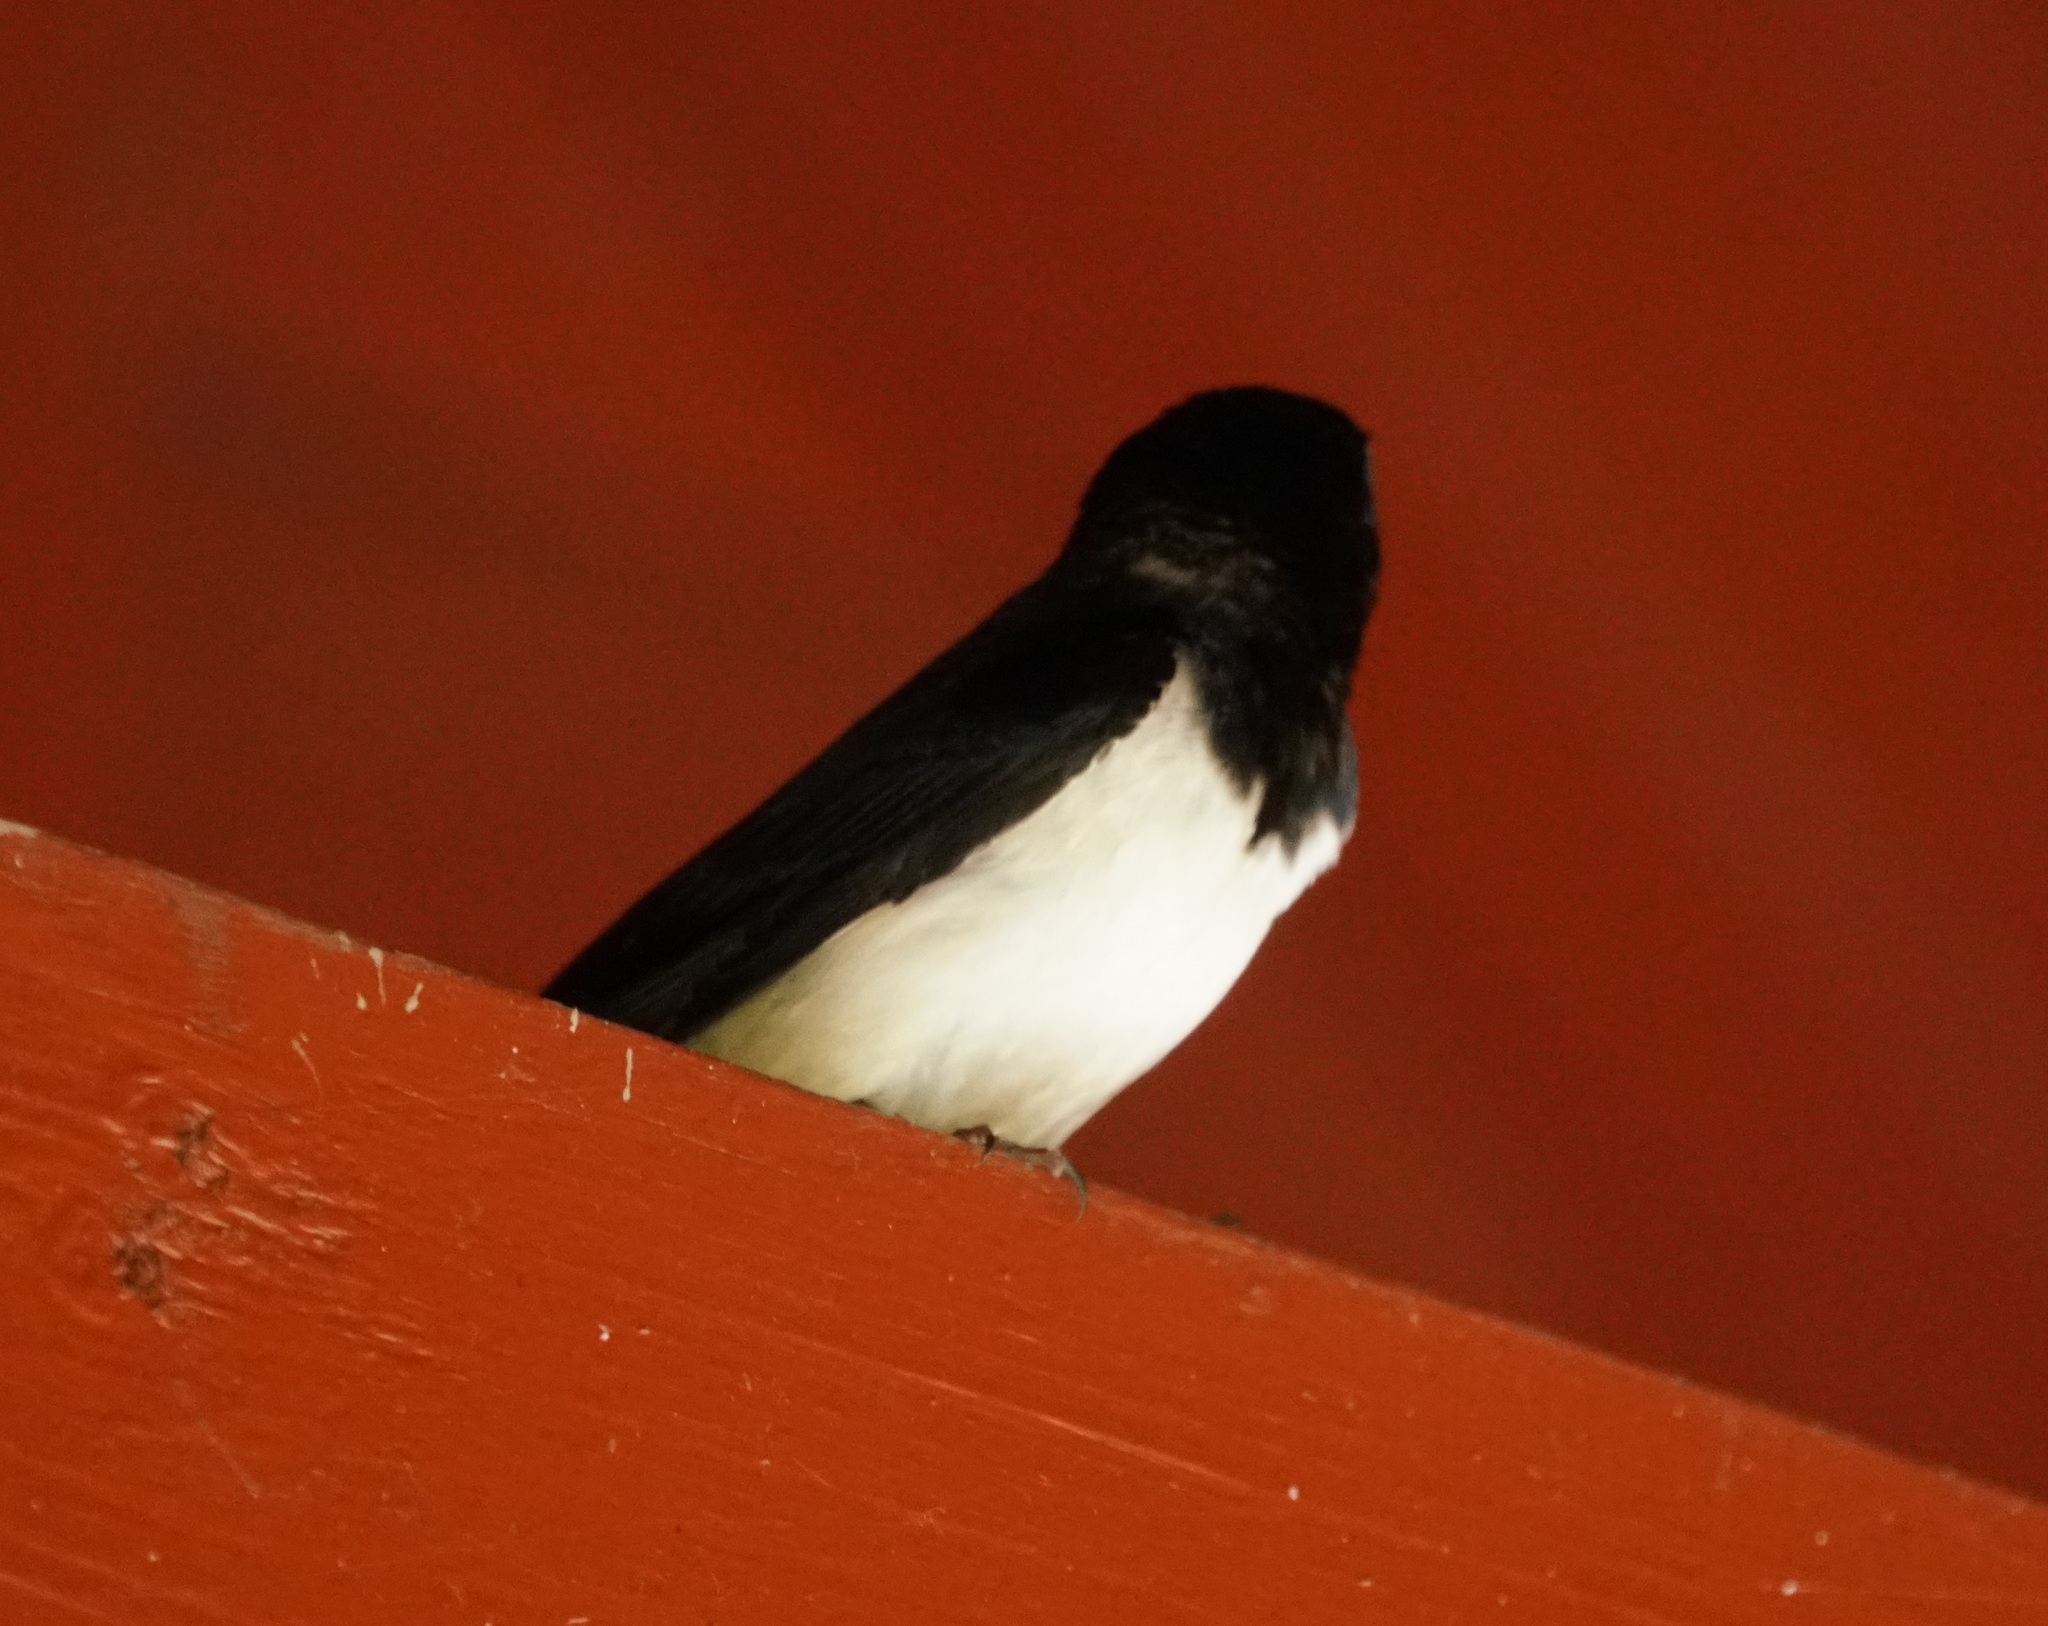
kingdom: Animalia
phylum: Chordata
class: Aves
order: Passeriformes
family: Hirundinidae
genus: Hirundo
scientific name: Hirundo rustica
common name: Barn swallow
